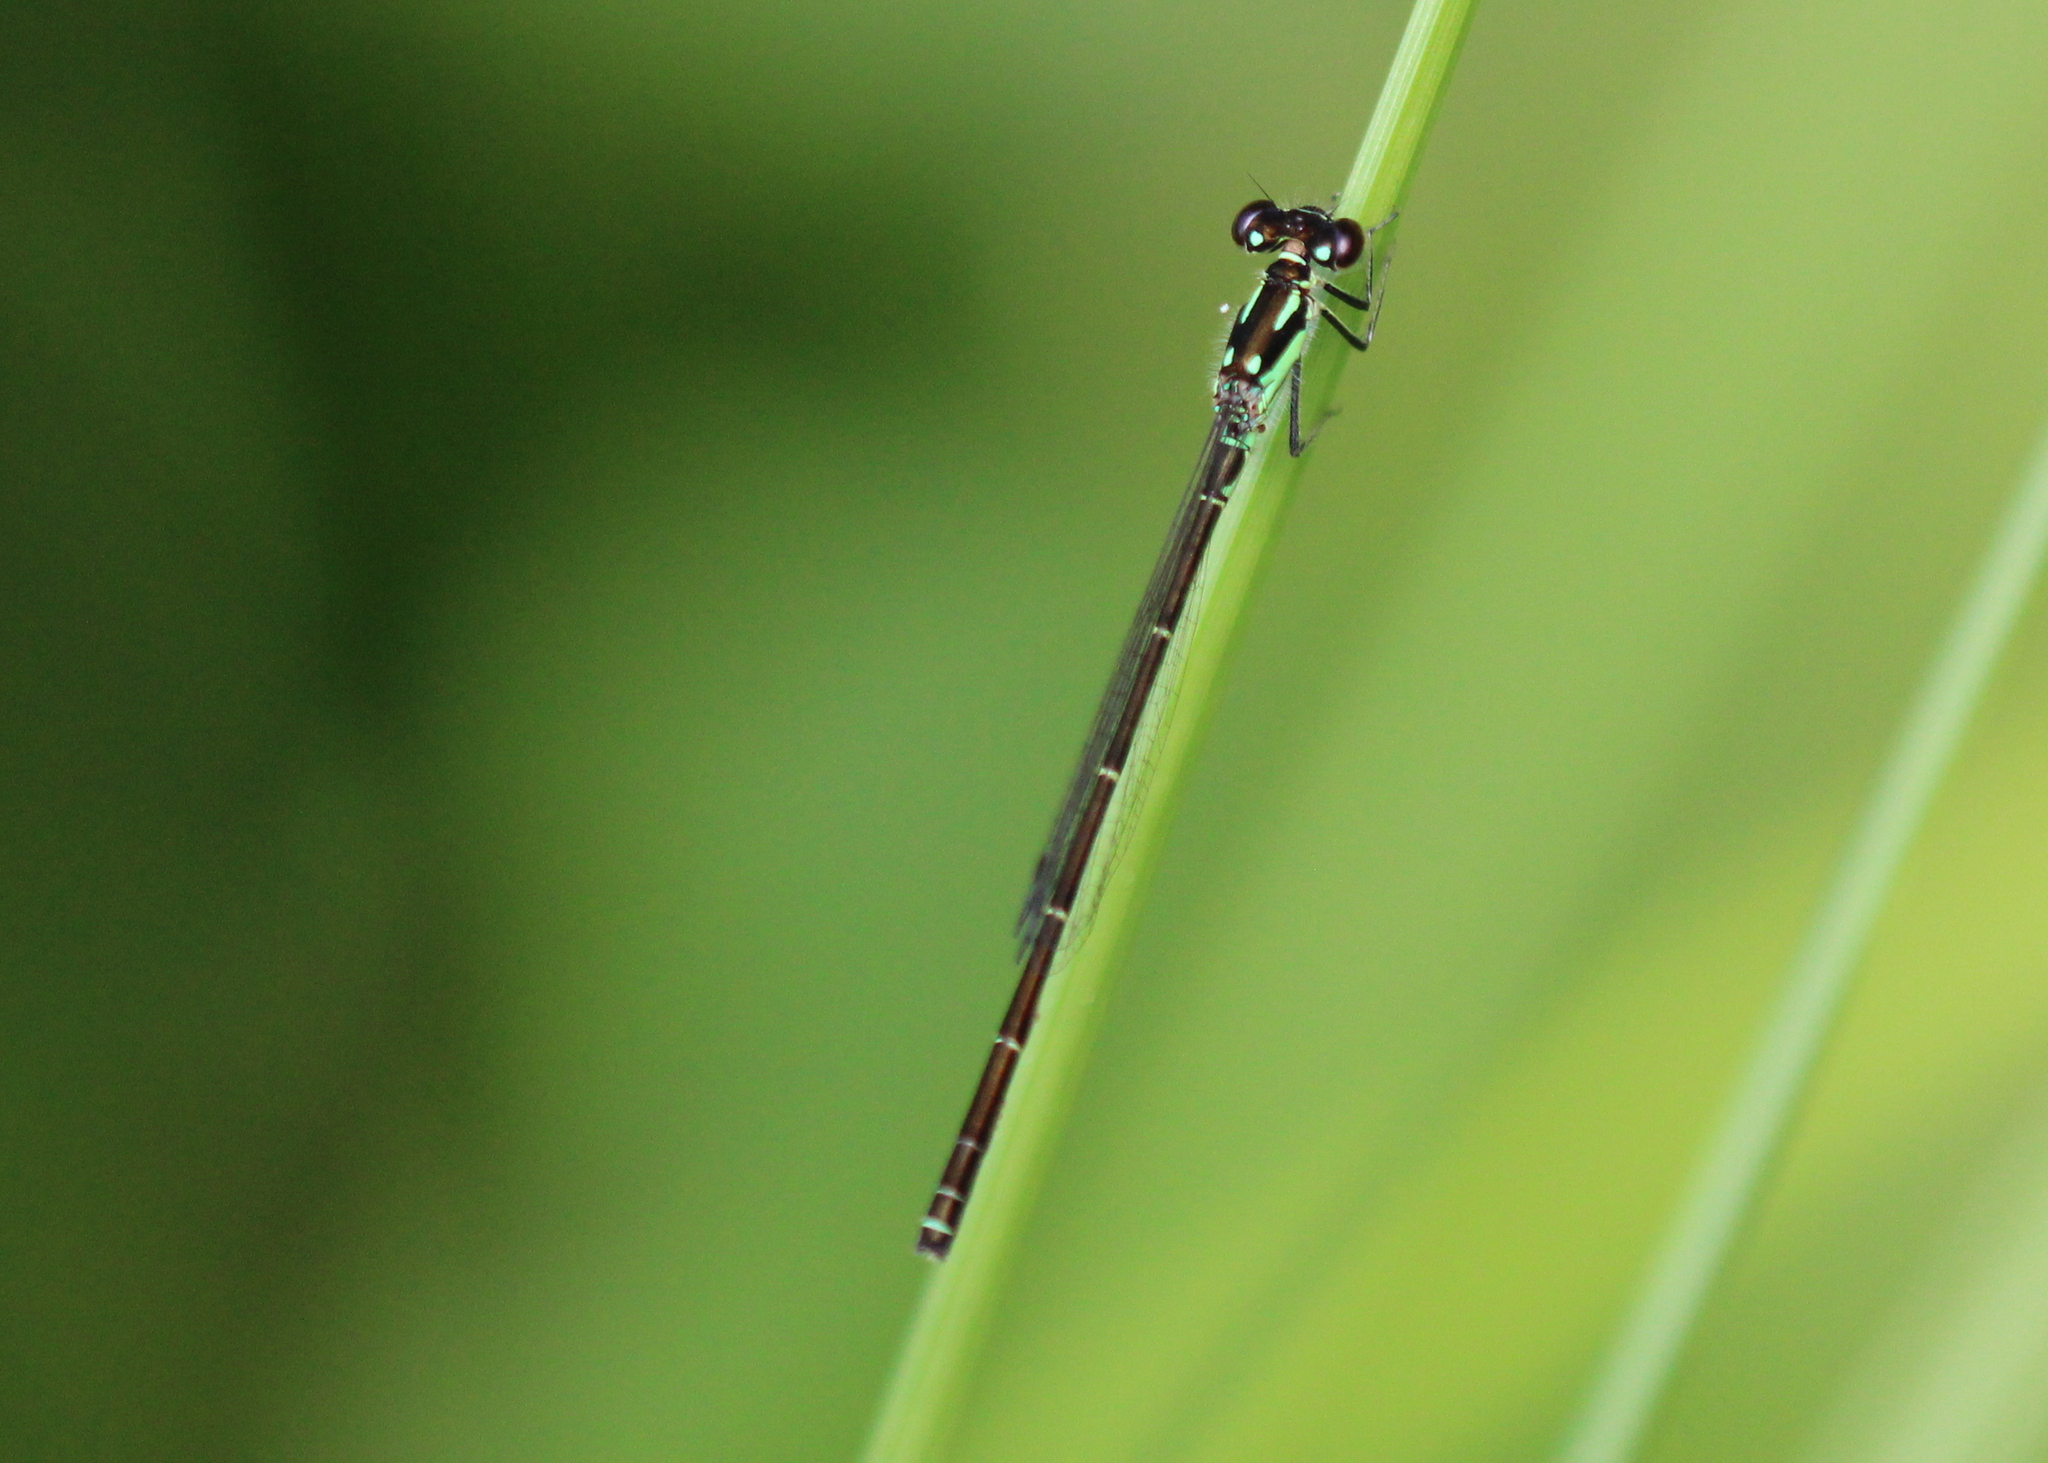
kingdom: Animalia
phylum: Arthropoda
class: Insecta
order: Odonata
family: Coenagrionidae
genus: Ischnura
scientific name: Ischnura posita
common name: Fragile forktail
